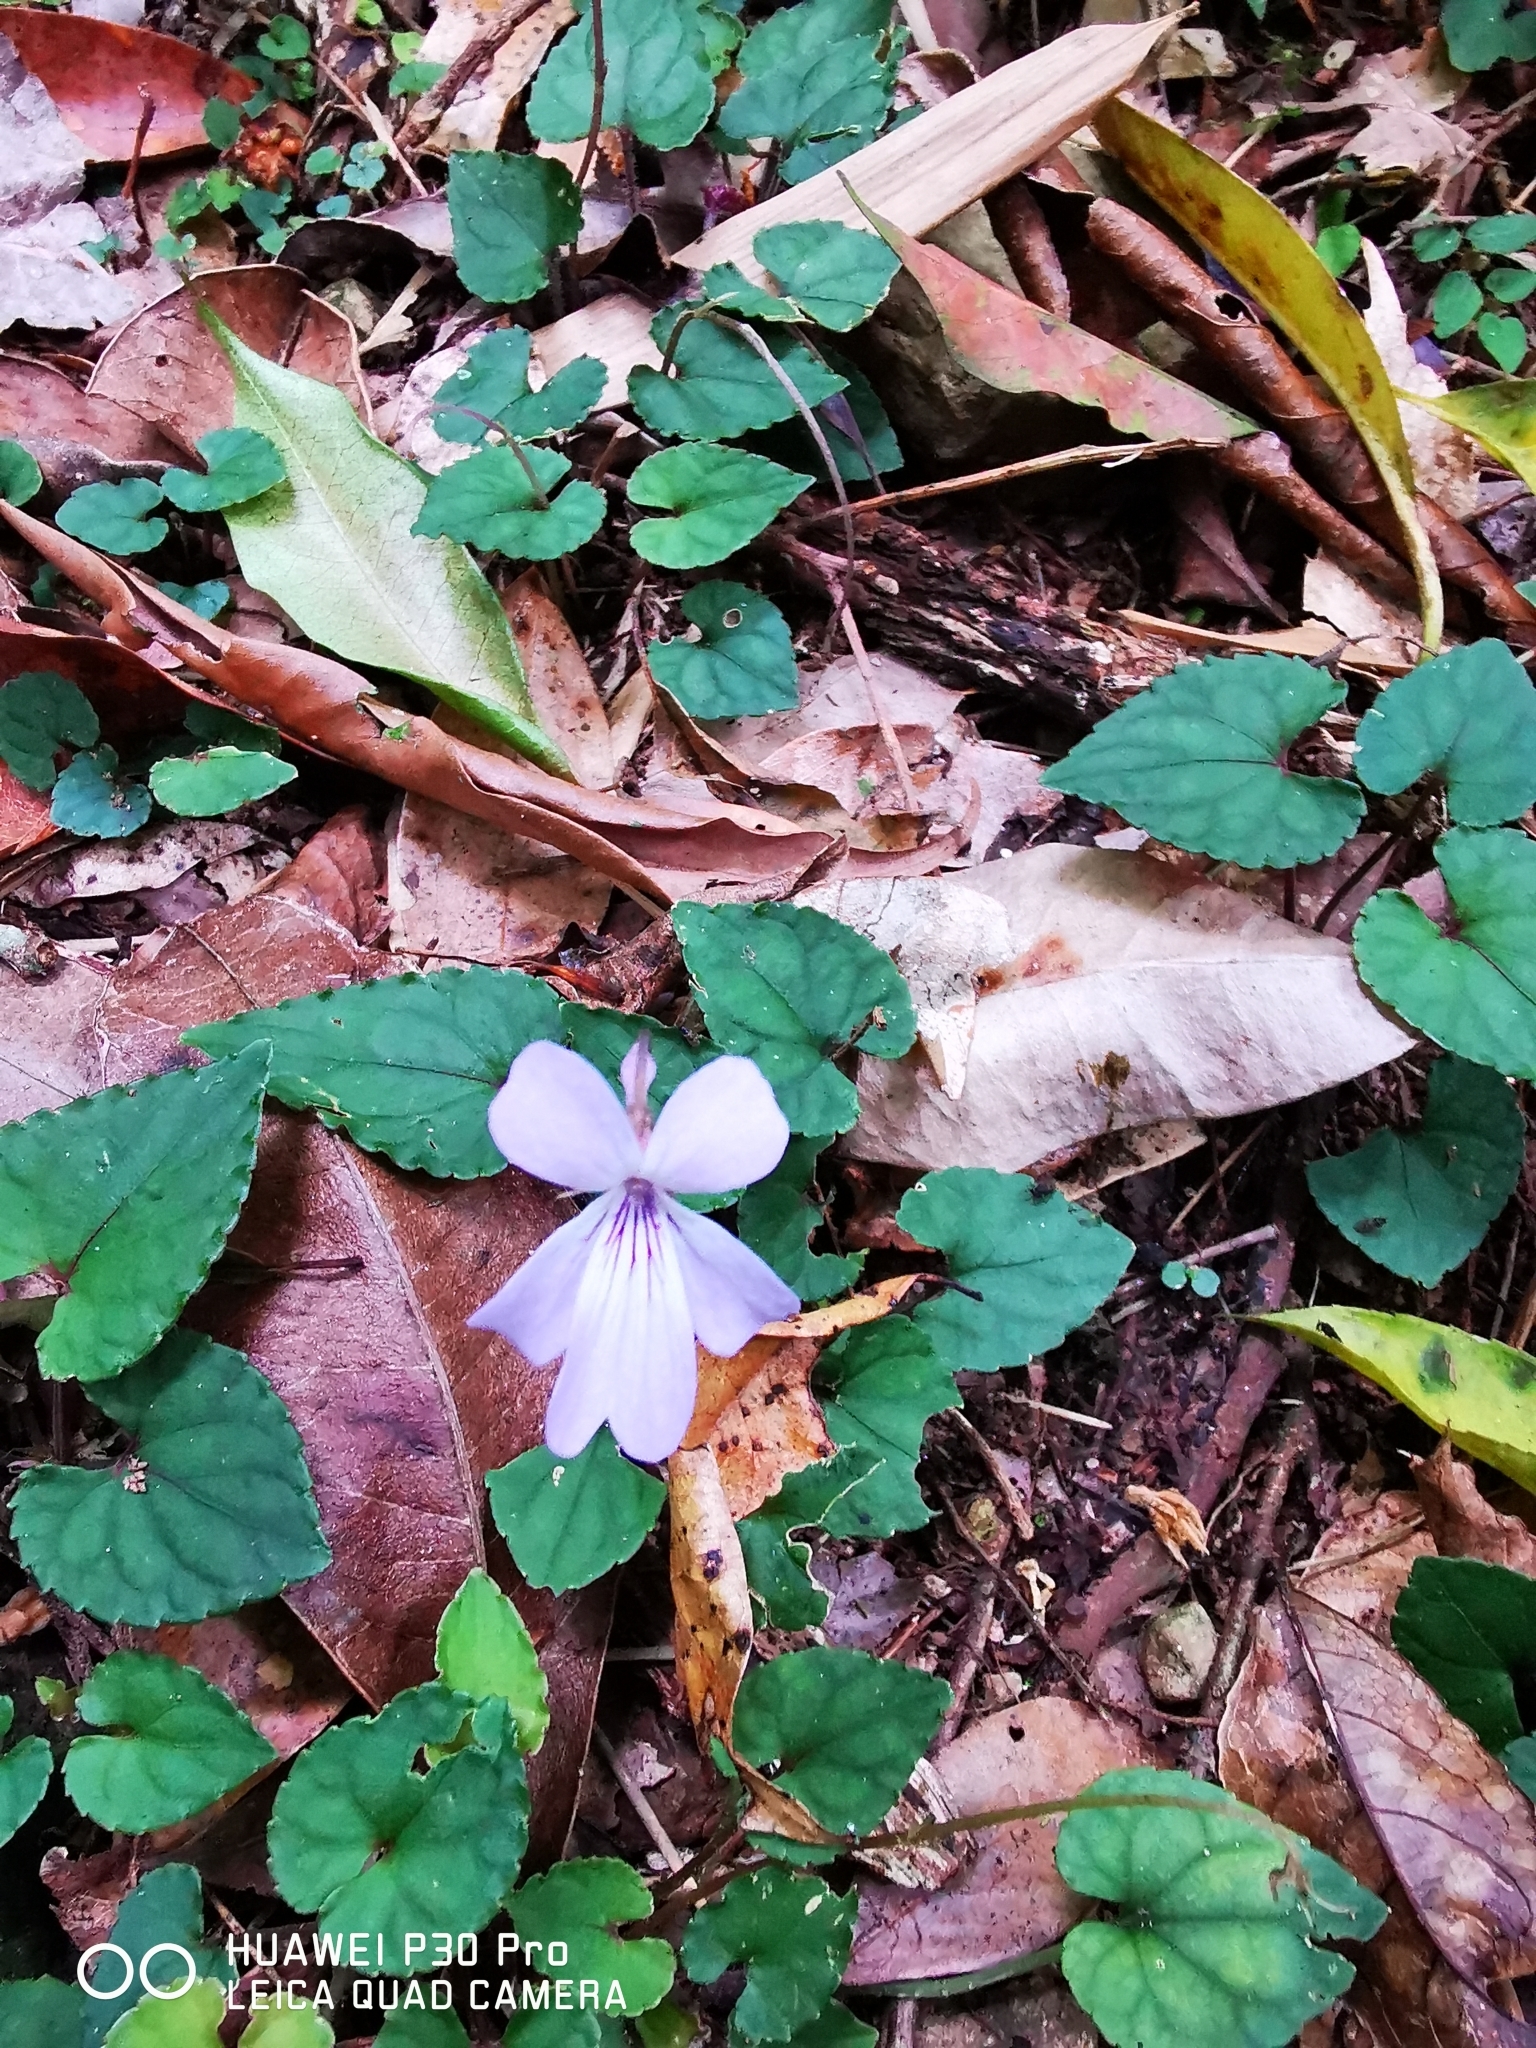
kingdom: Plantae
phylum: Tracheophyta
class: Magnoliopsida
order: Malpighiales
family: Violaceae
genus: Viola
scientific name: Viola formosana
